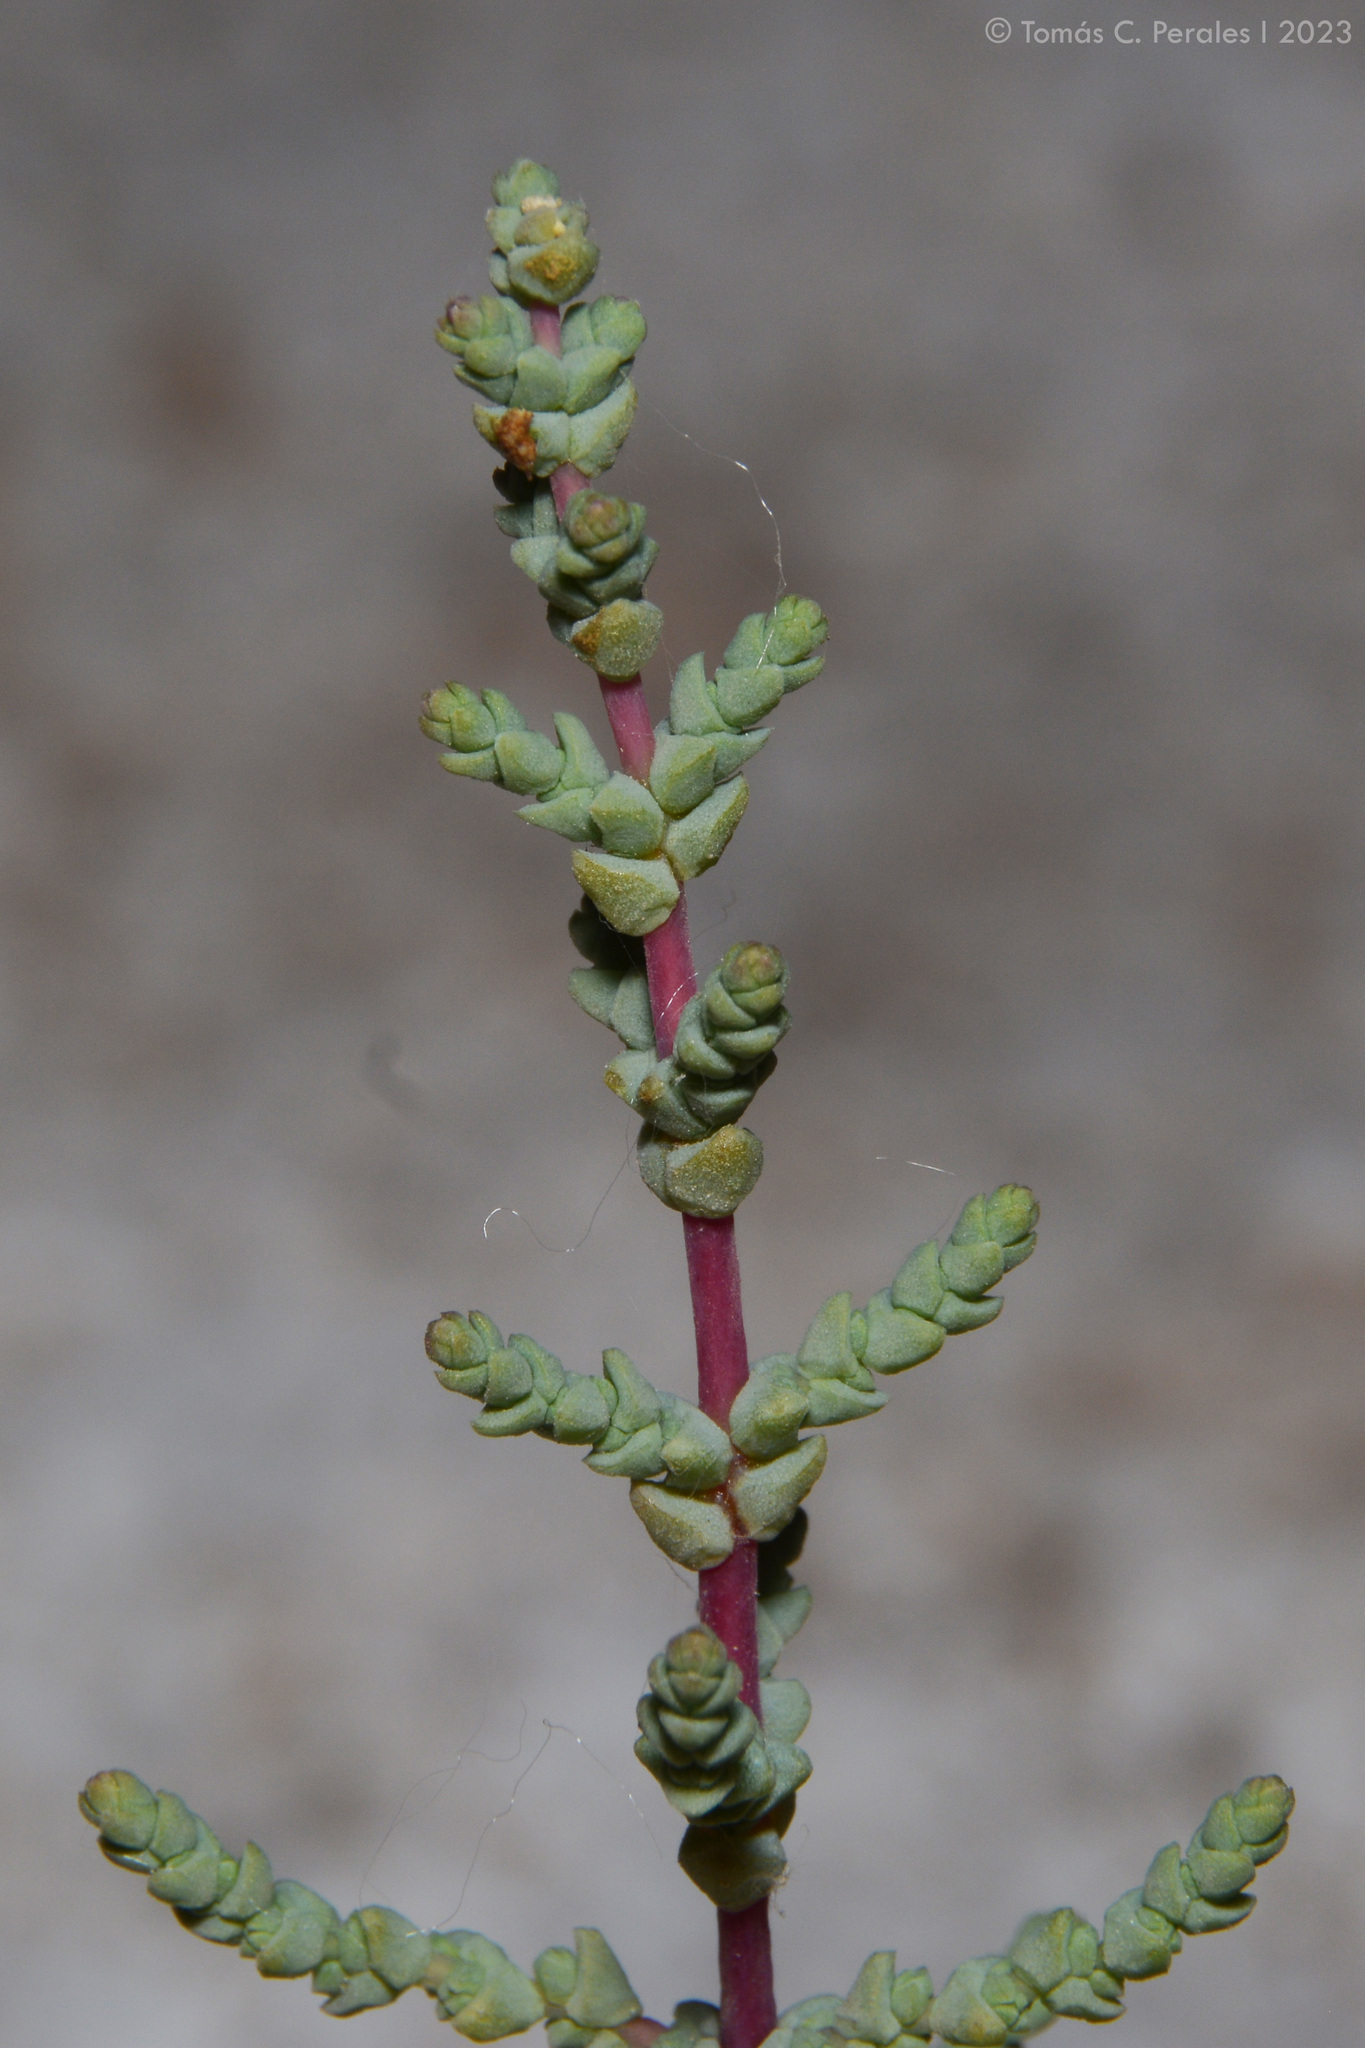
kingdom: Plantae
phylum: Tracheophyta
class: Magnoliopsida
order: Caryophyllales
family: Amaranthaceae
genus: Allenrolfea
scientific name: Allenrolfea patagonica
